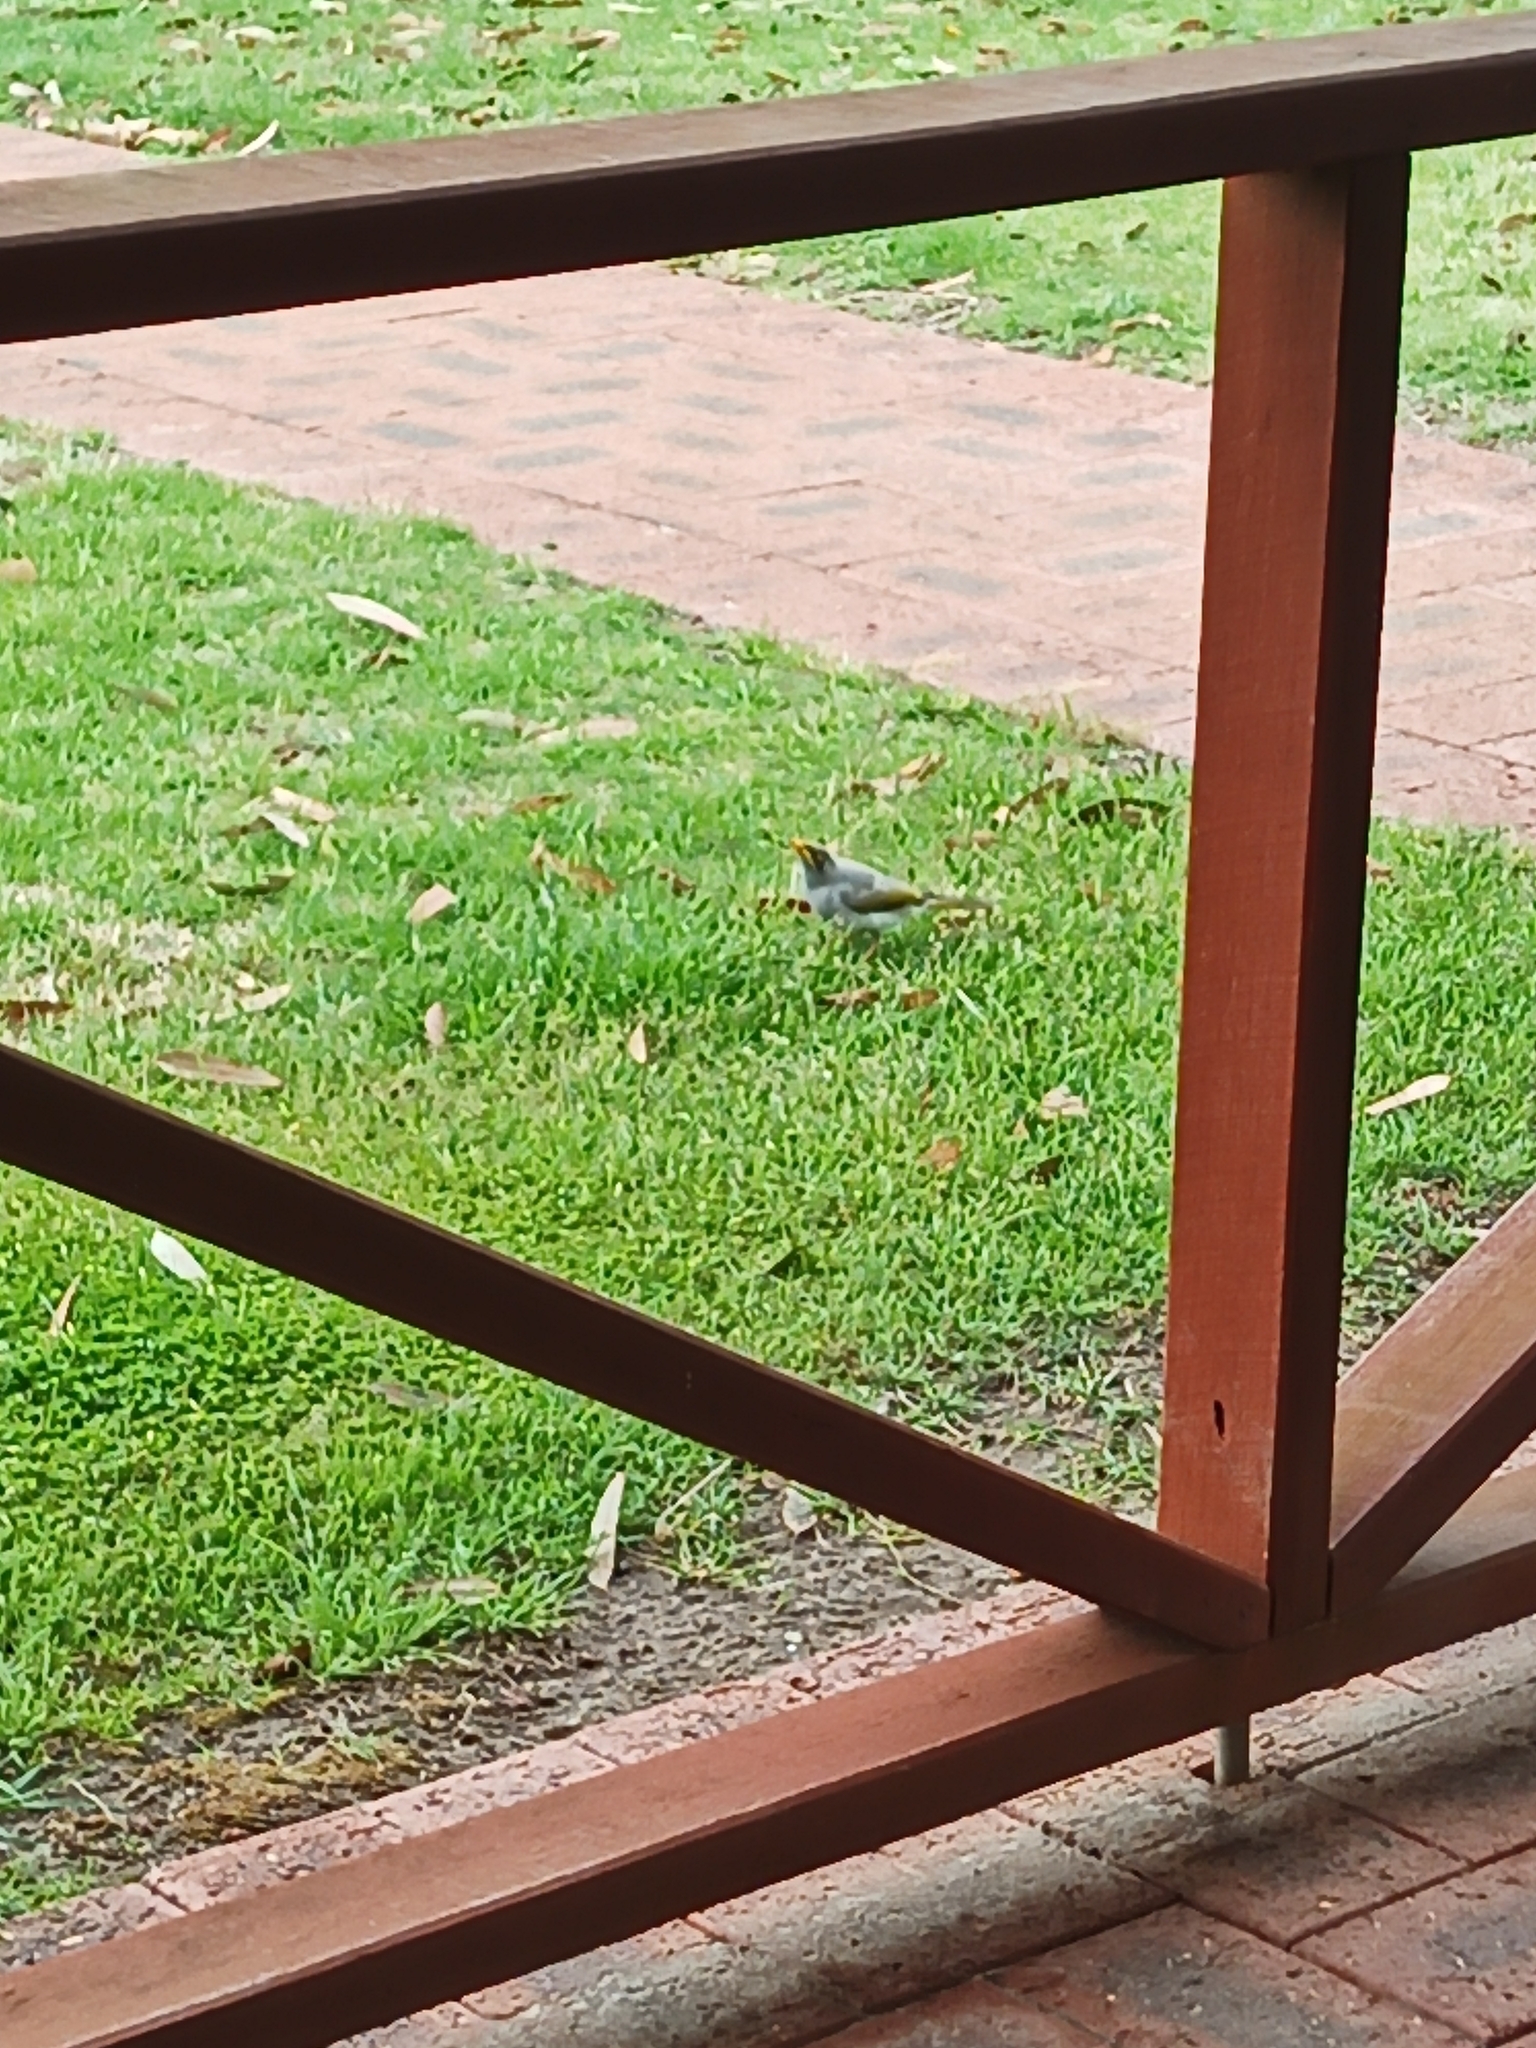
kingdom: Animalia
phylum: Chordata
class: Aves
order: Passeriformes
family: Meliphagidae
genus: Manorina
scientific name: Manorina flavigula
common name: Yellow-throated miner
